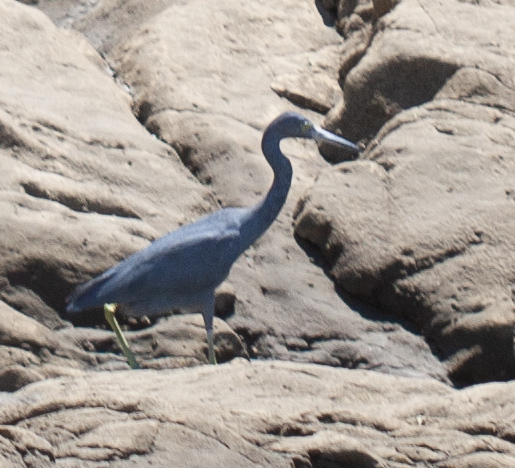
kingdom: Animalia
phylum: Chordata
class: Aves
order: Pelecaniformes
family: Ardeidae
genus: Egretta
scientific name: Egretta caerulea
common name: Little blue heron
